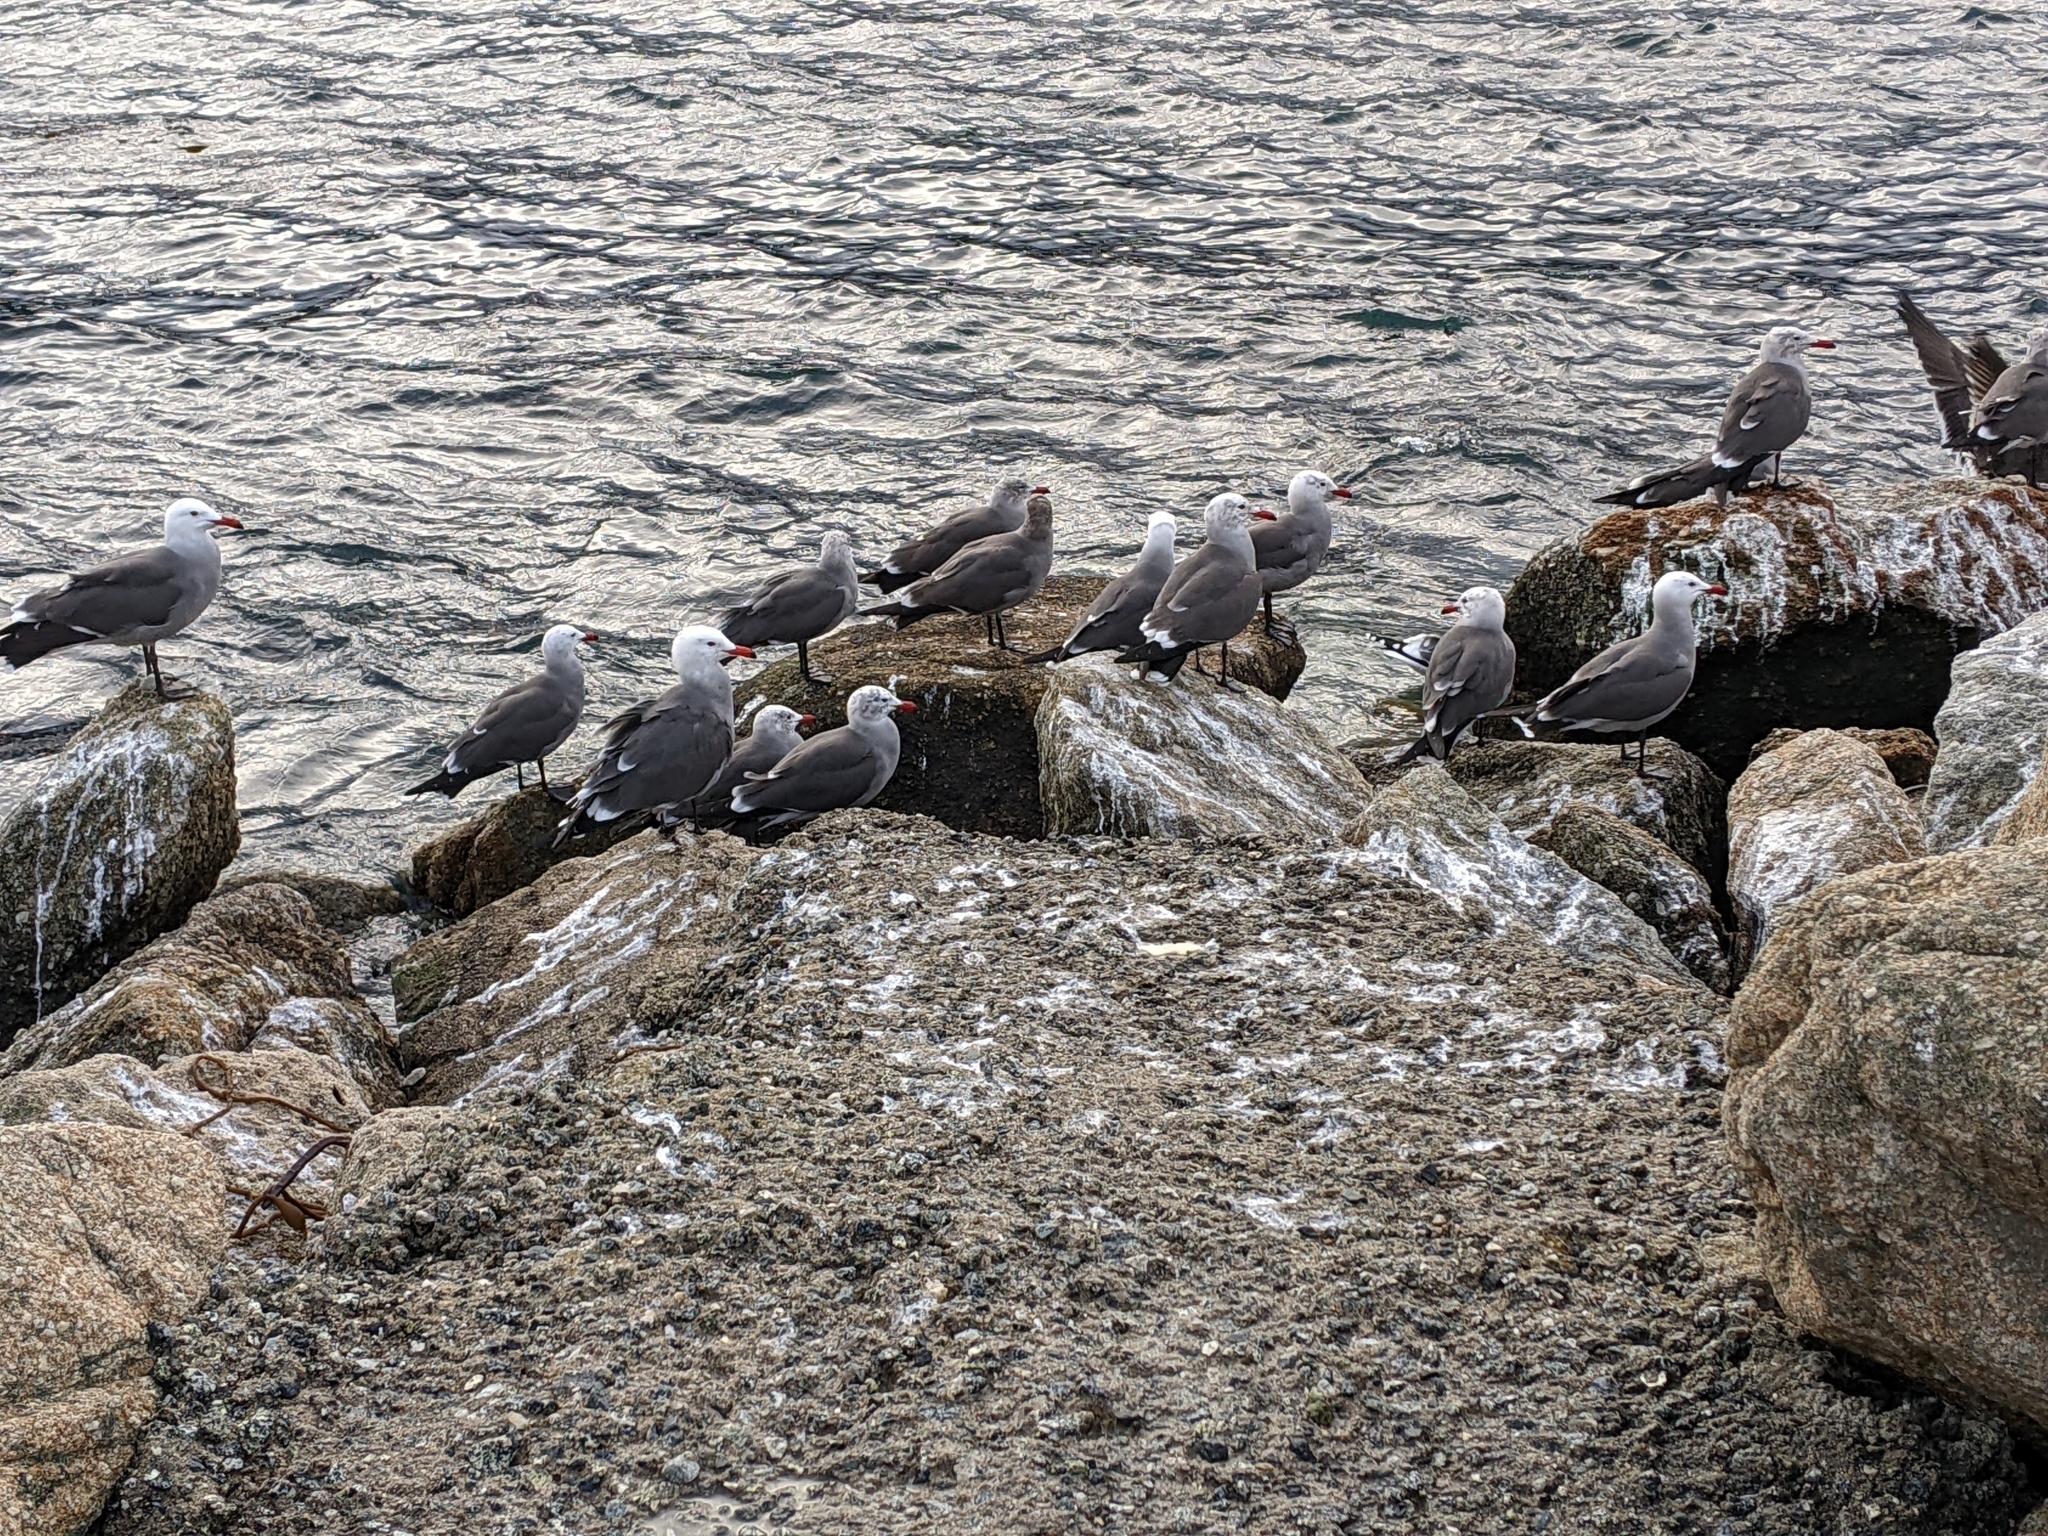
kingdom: Animalia
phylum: Chordata
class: Aves
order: Charadriiformes
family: Laridae
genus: Larus
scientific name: Larus heermanni
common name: Heermann's gull
